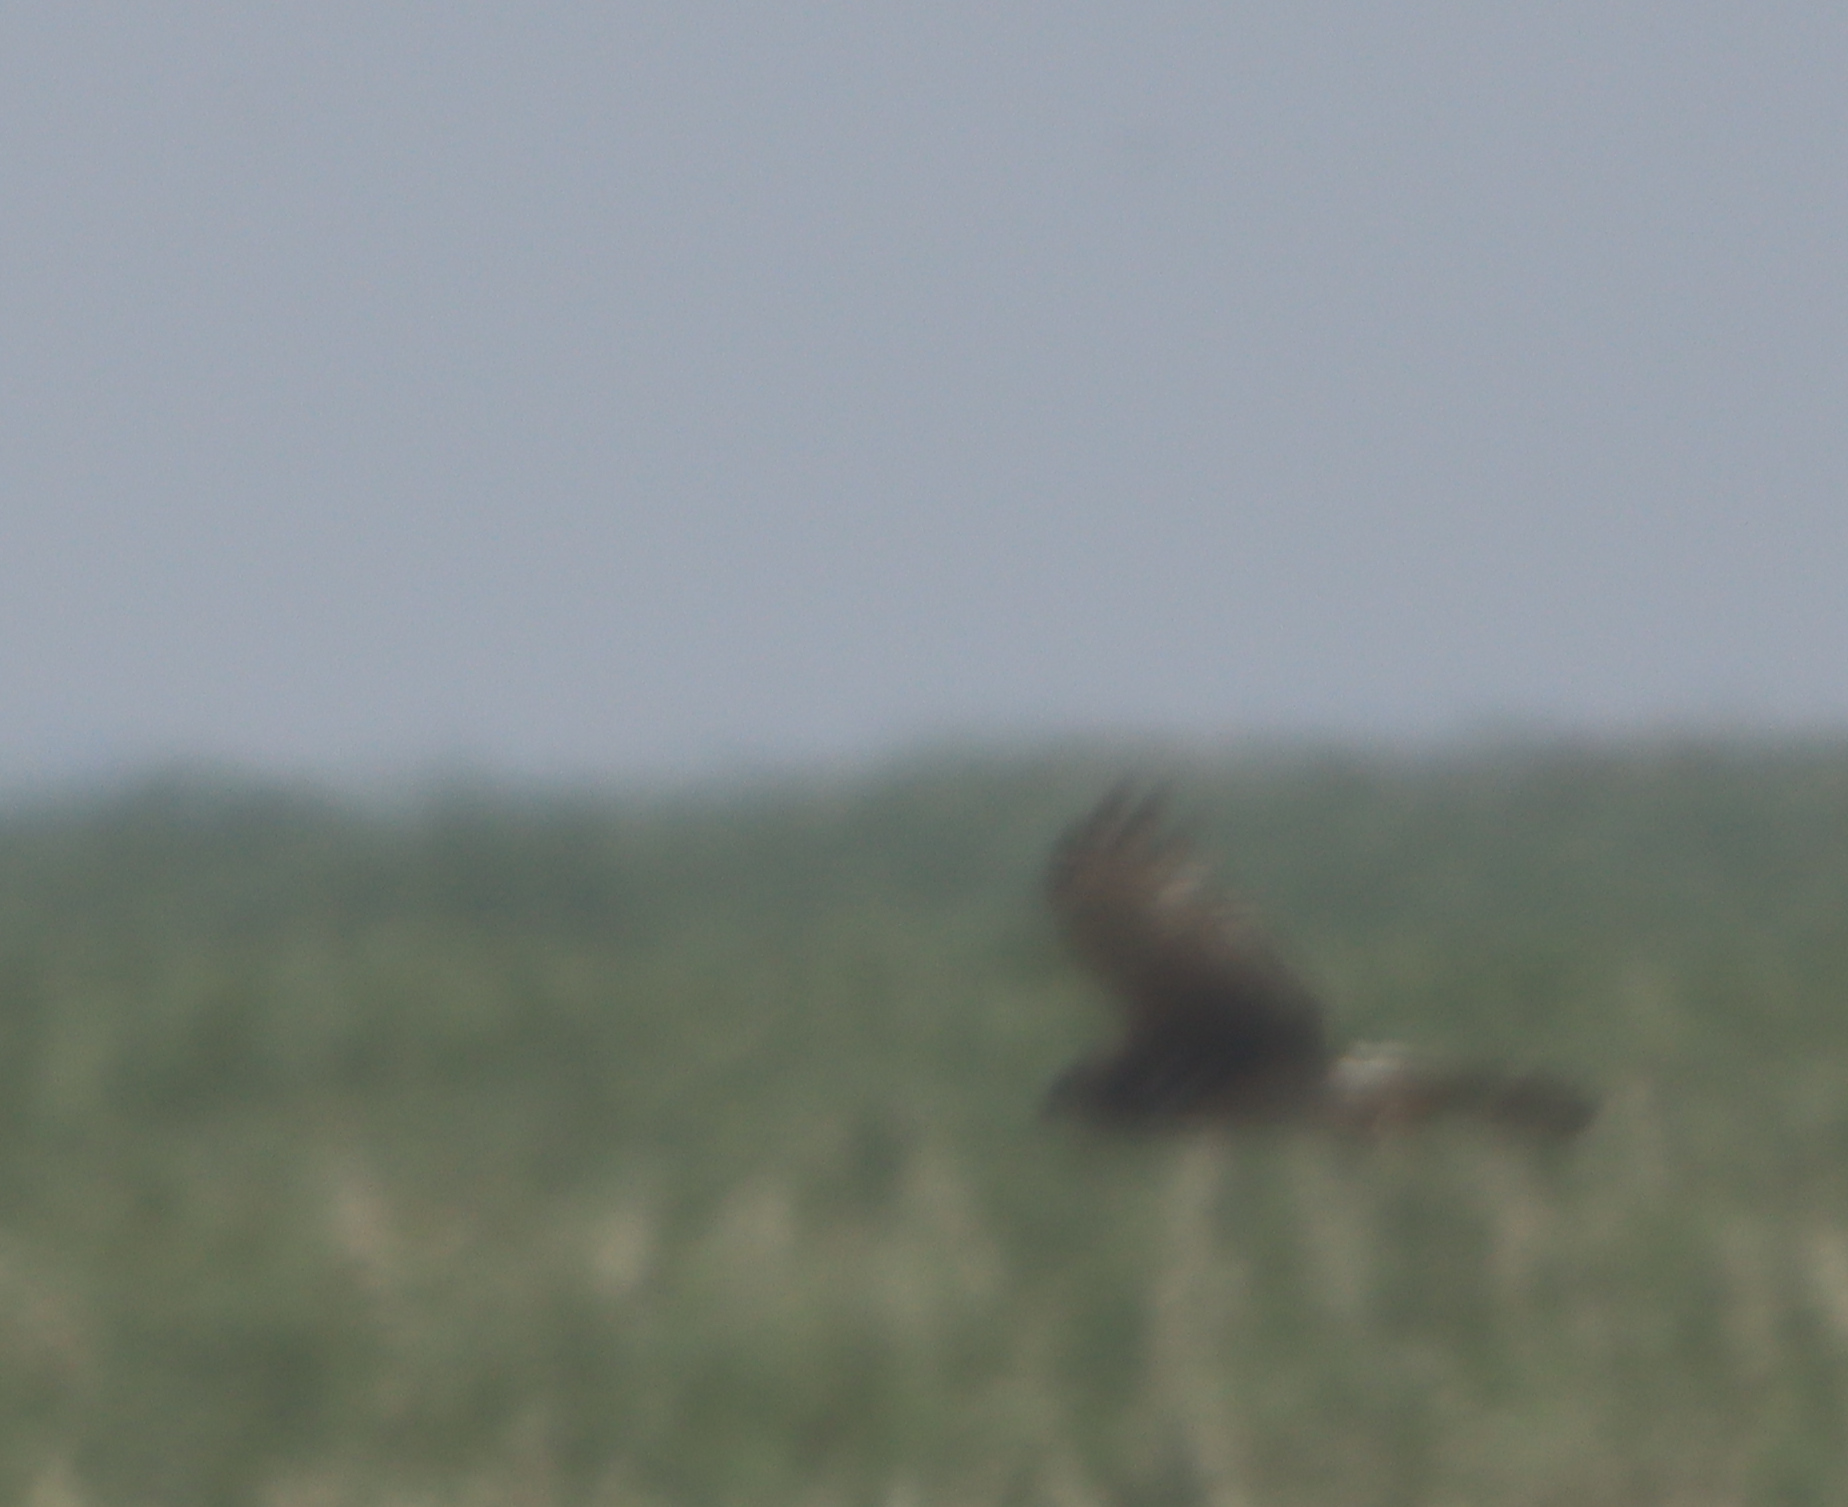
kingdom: Animalia
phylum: Chordata
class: Aves
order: Accipitriformes
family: Accipitridae
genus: Circus
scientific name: Circus cyaneus
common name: Hen harrier
